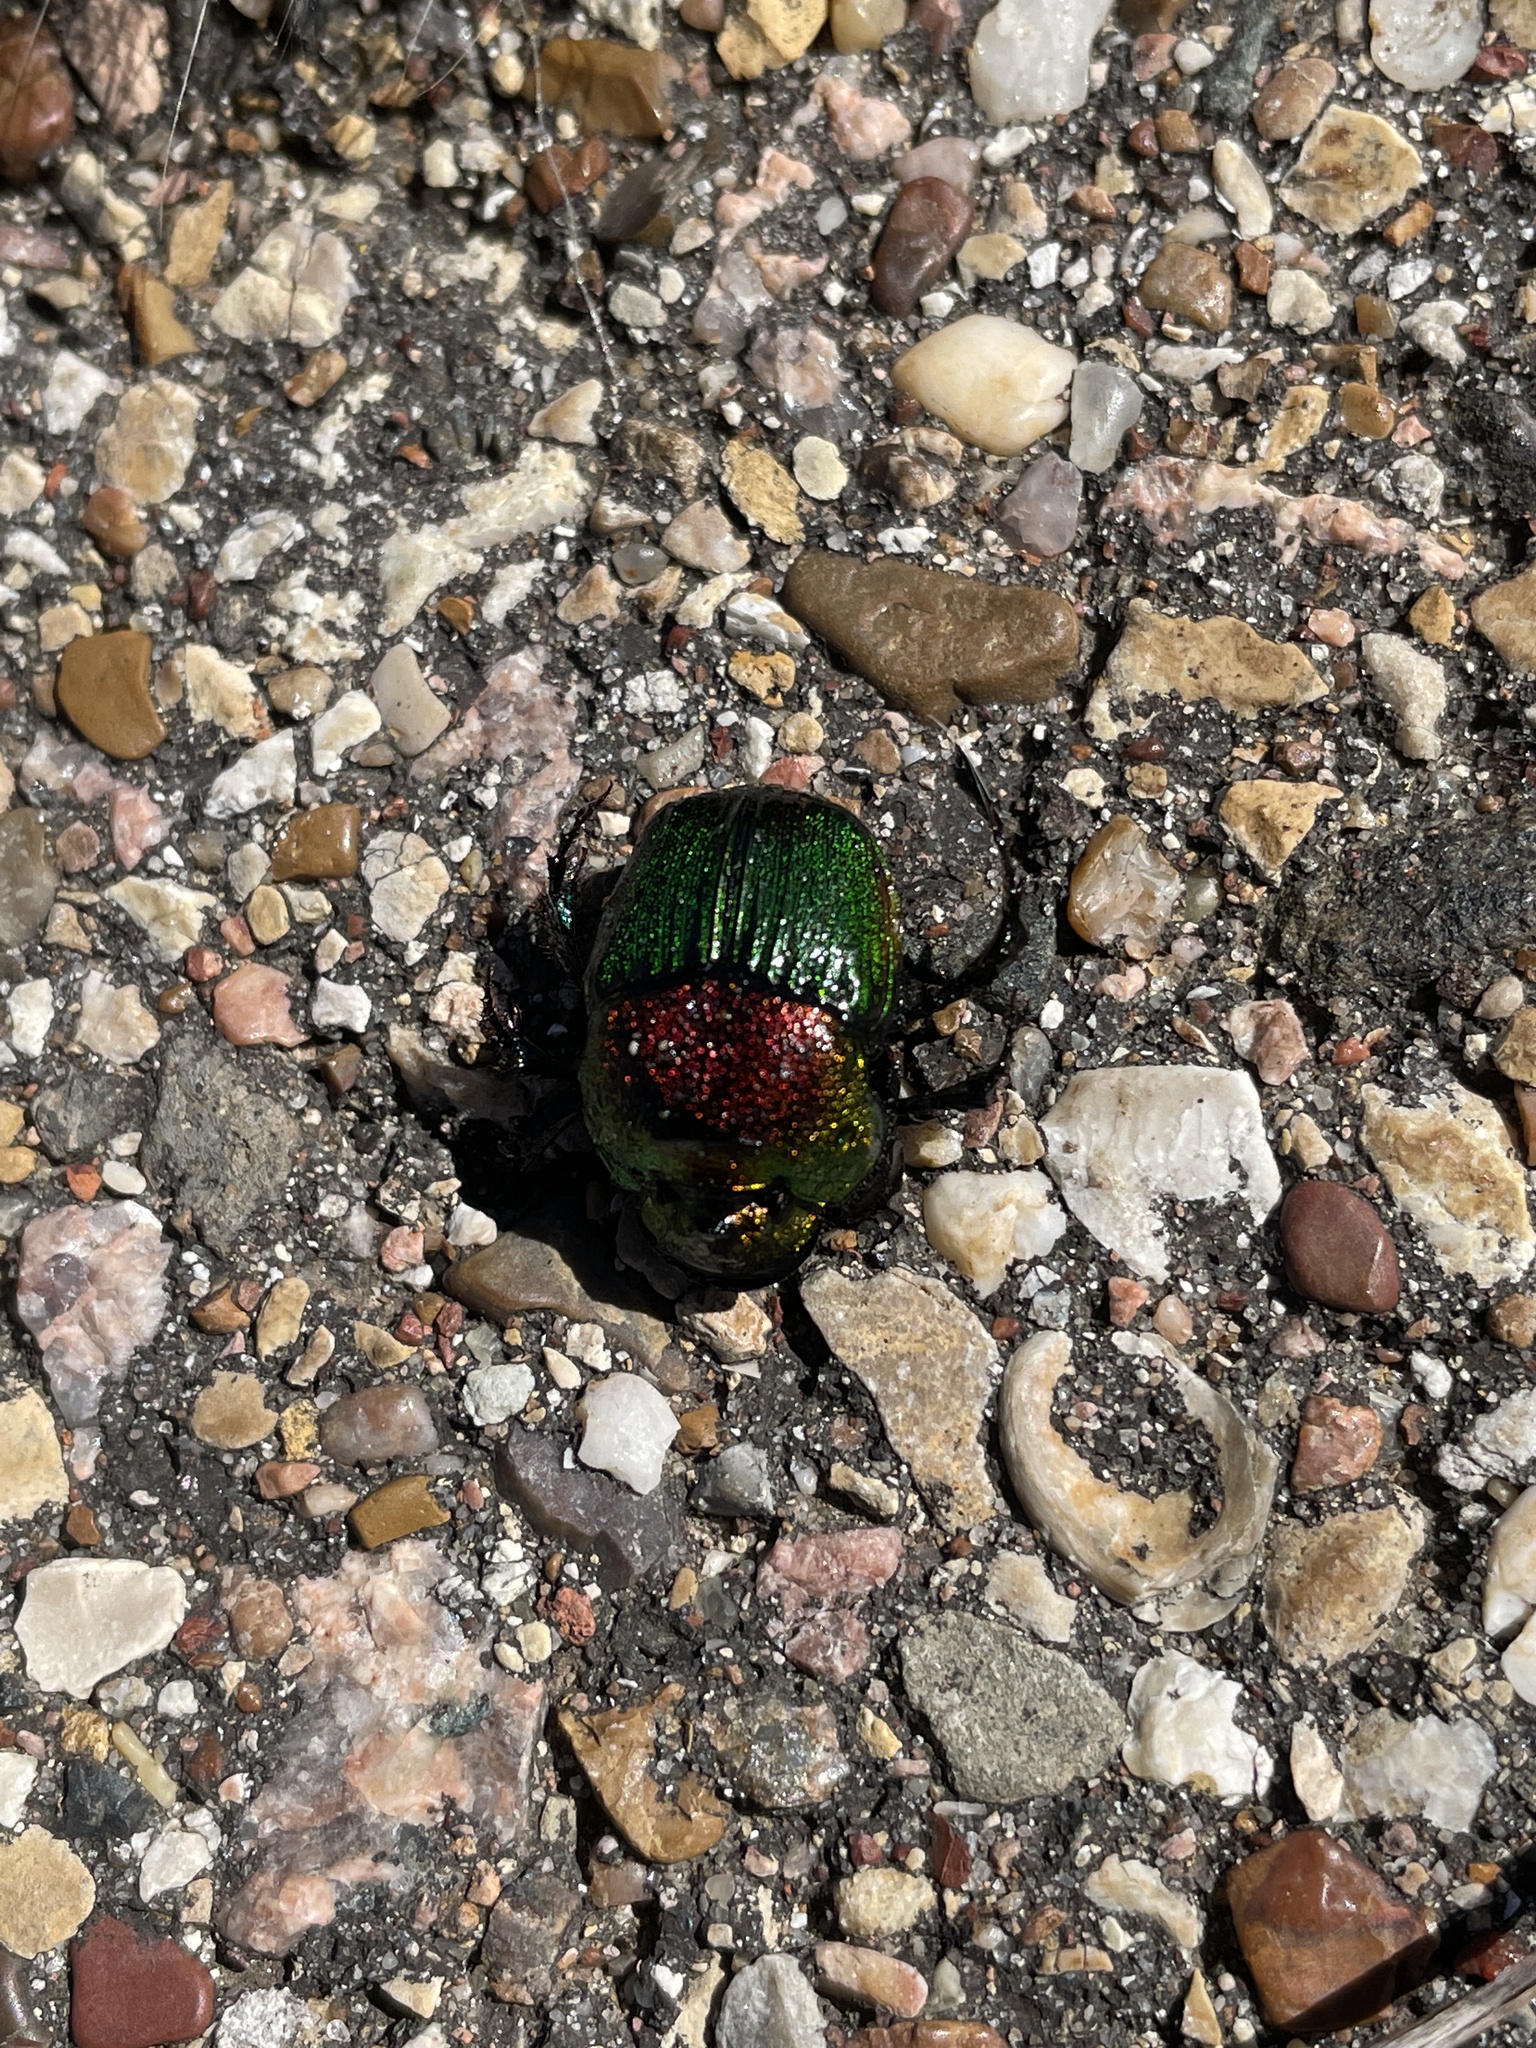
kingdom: Animalia
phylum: Arthropoda
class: Insecta
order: Coleoptera
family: Scarabaeidae
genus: Phanaeus
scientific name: Phanaeus vindex
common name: Rainbow scarab
